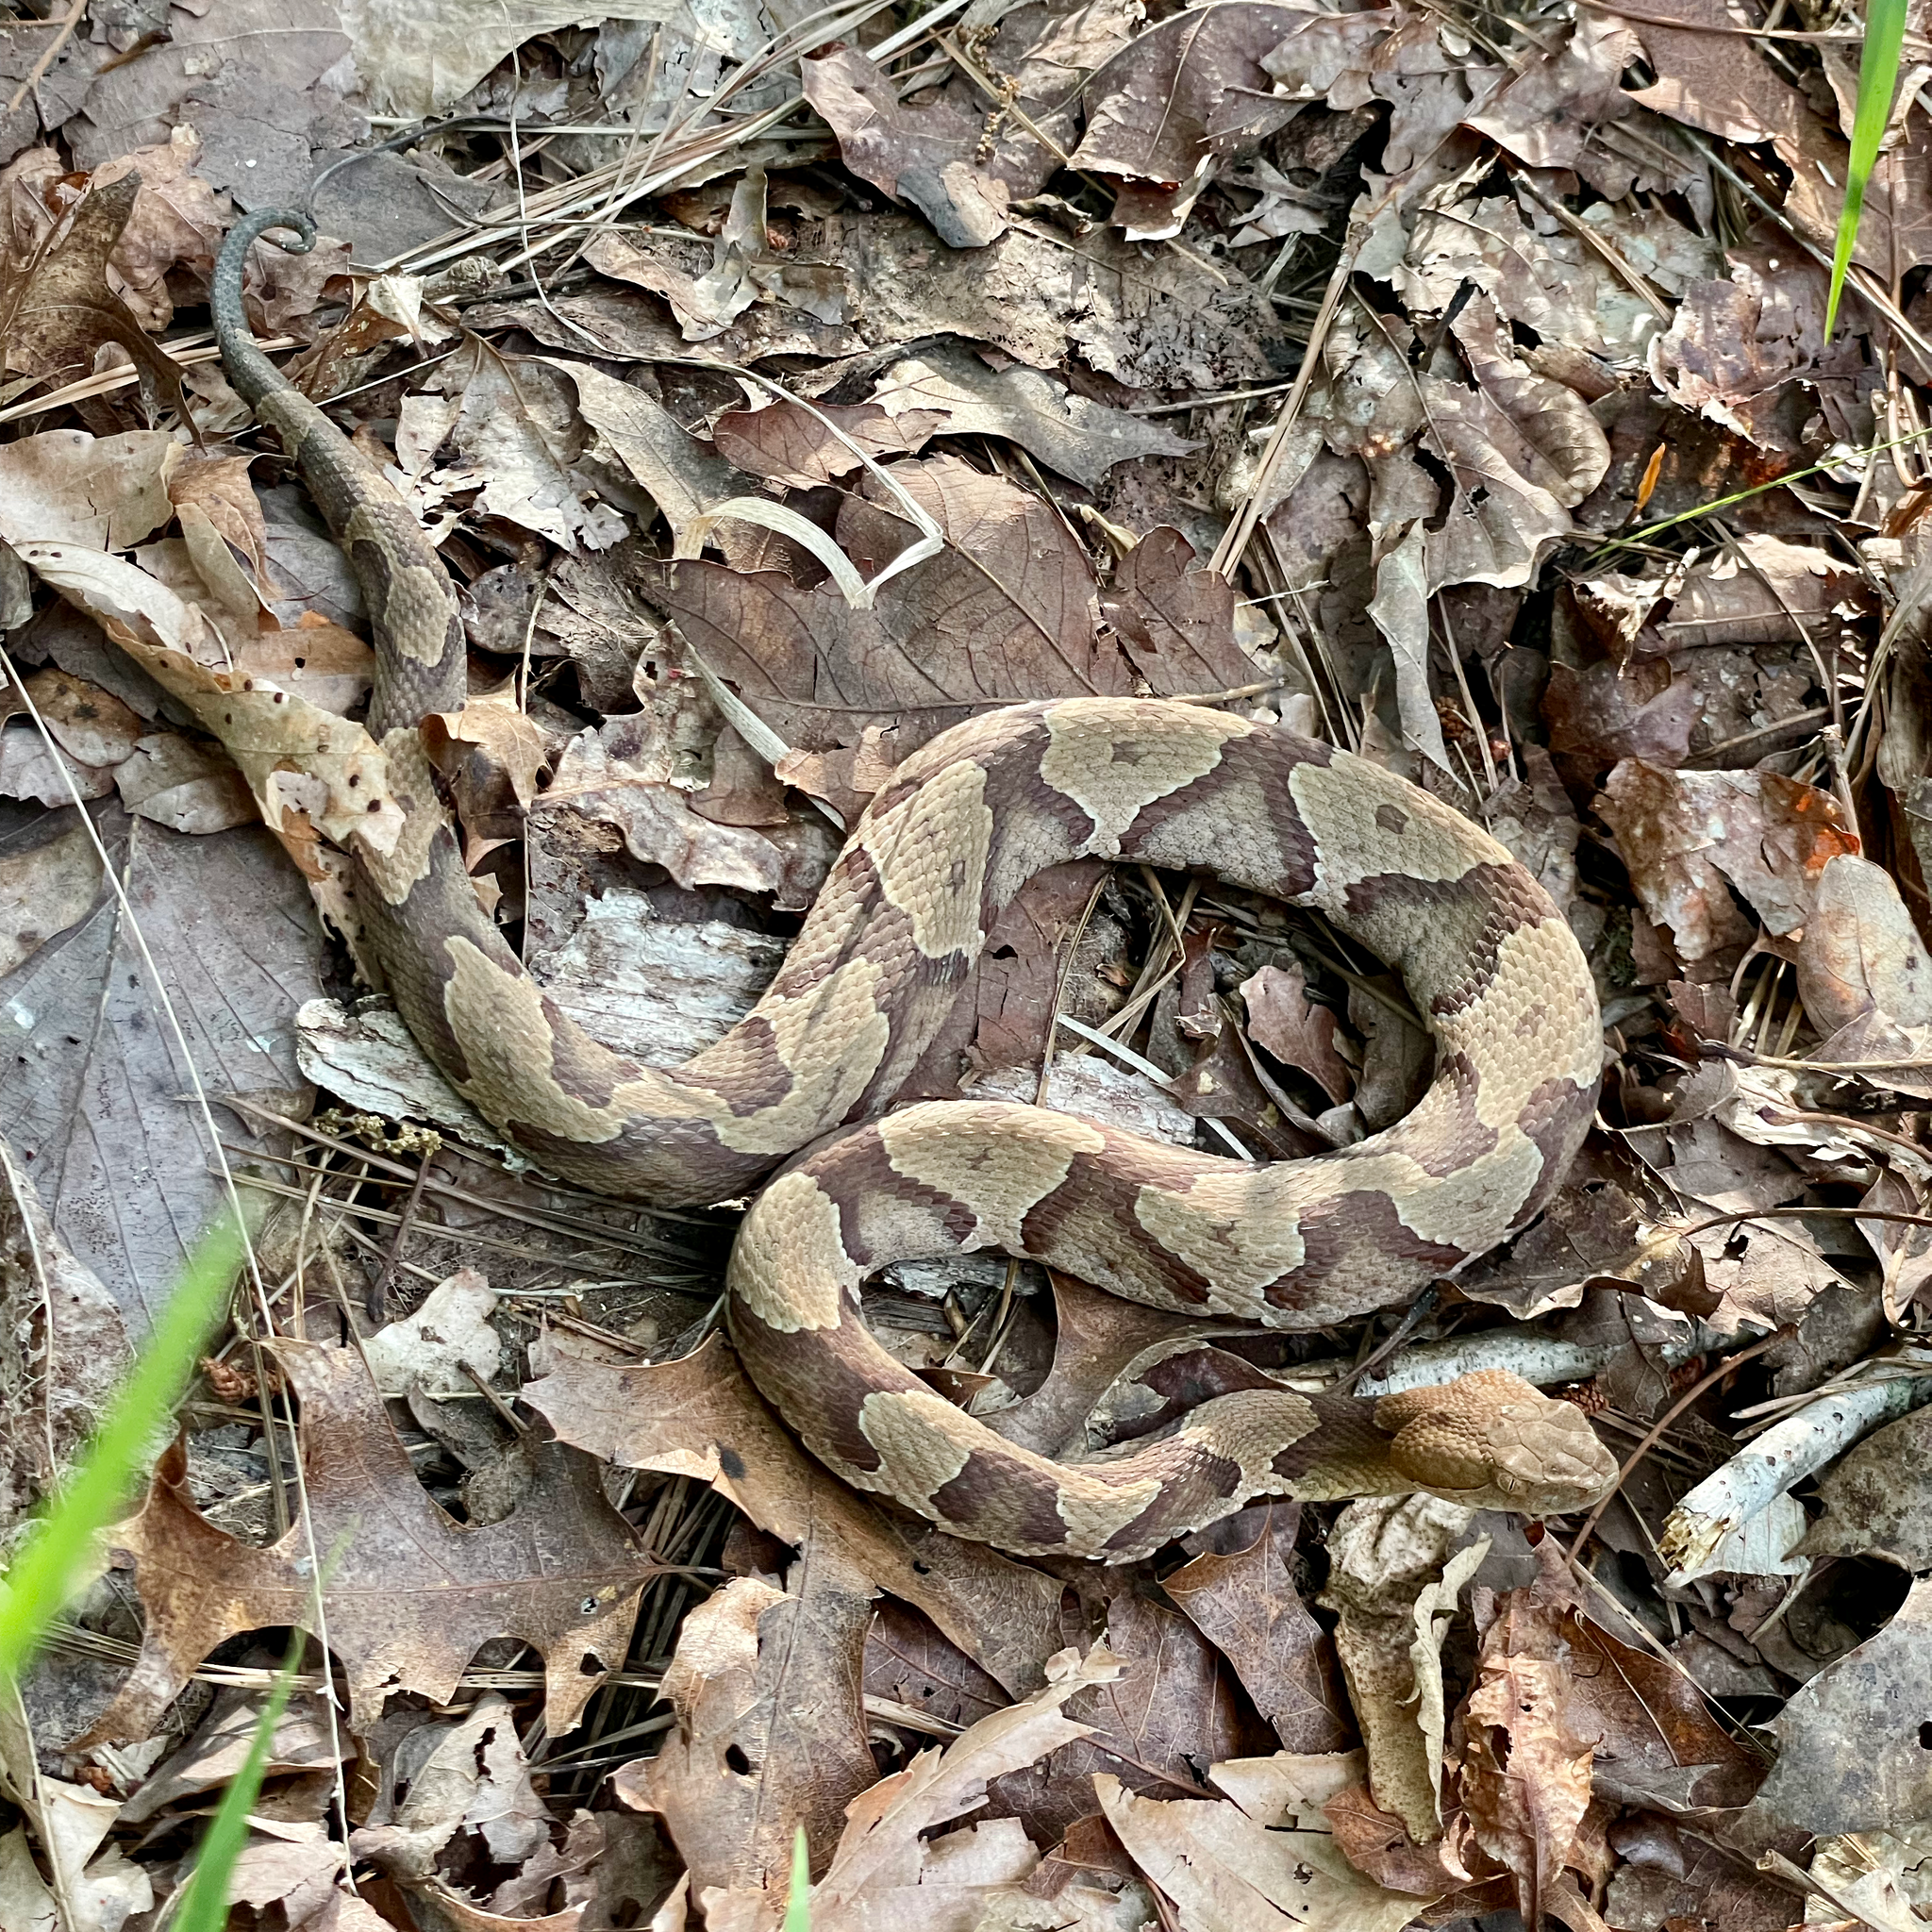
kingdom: Animalia
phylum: Chordata
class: Squamata
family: Viperidae
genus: Agkistrodon
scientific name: Agkistrodon contortrix
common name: Northern copperhead
